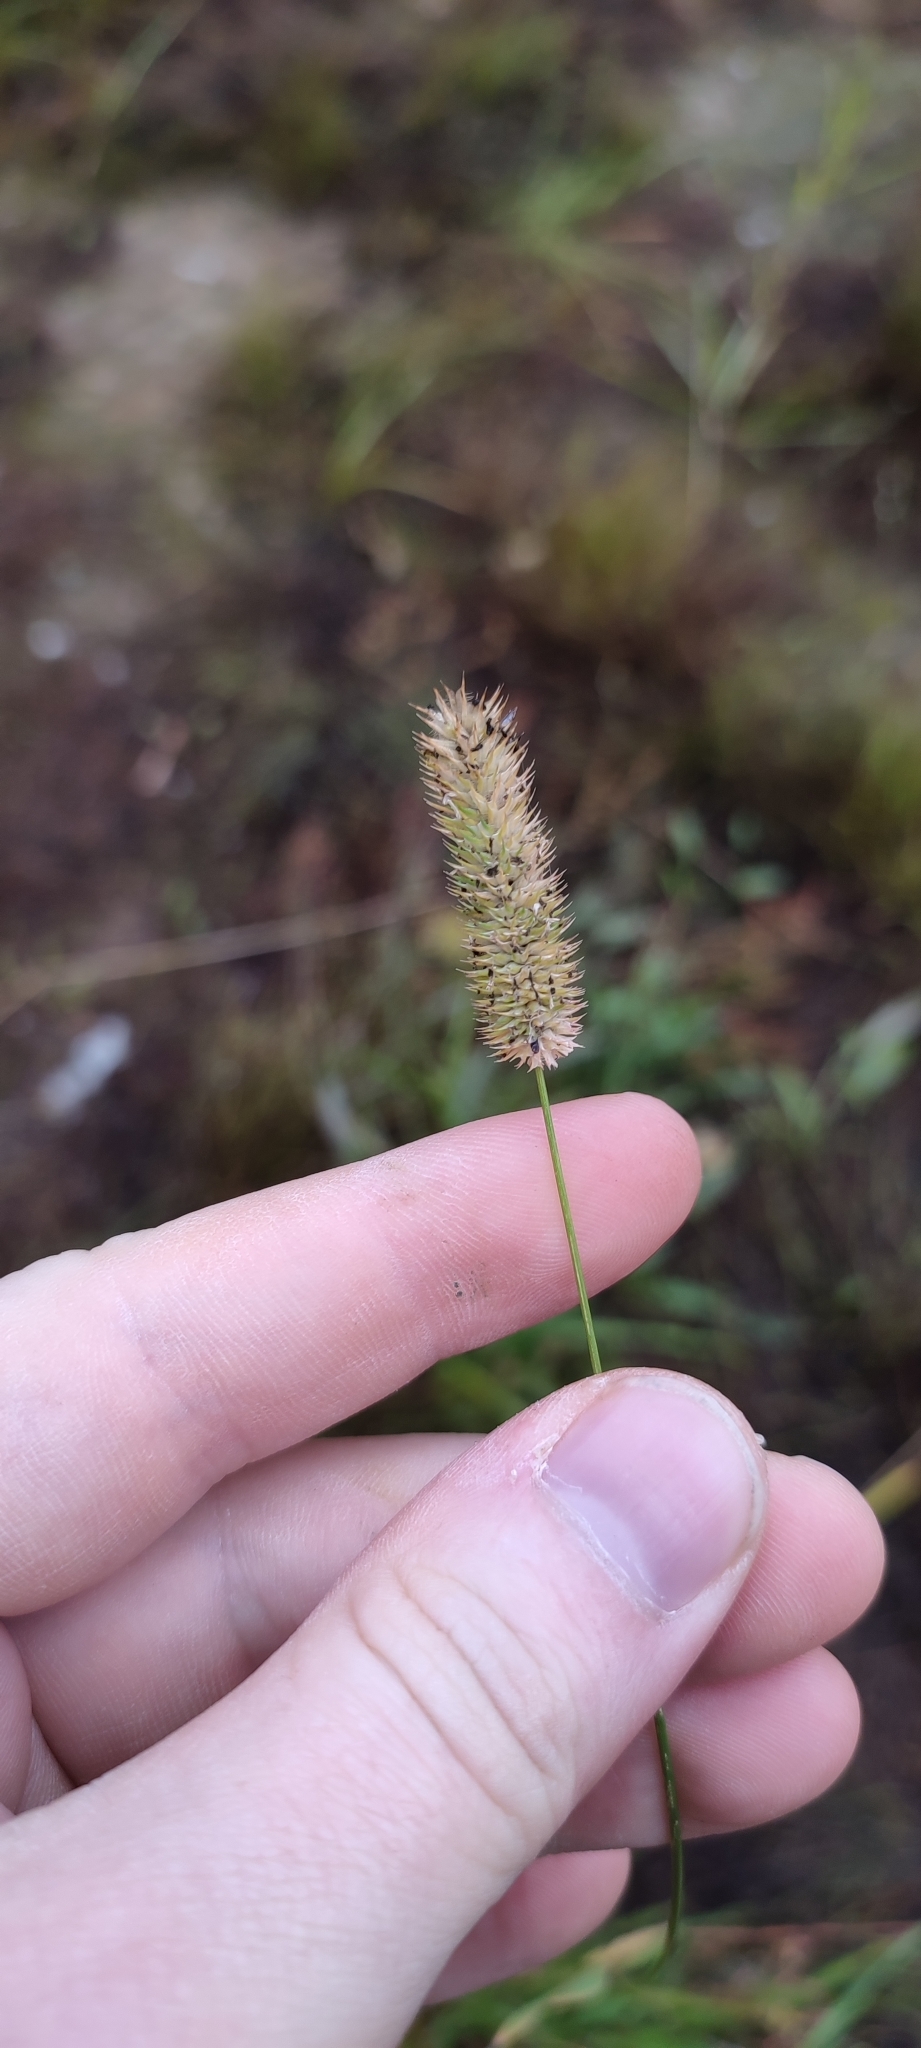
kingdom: Plantae
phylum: Tracheophyta
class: Liliopsida
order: Poales
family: Poaceae
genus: Phleum
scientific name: Phleum pratense
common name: Timothy grass
